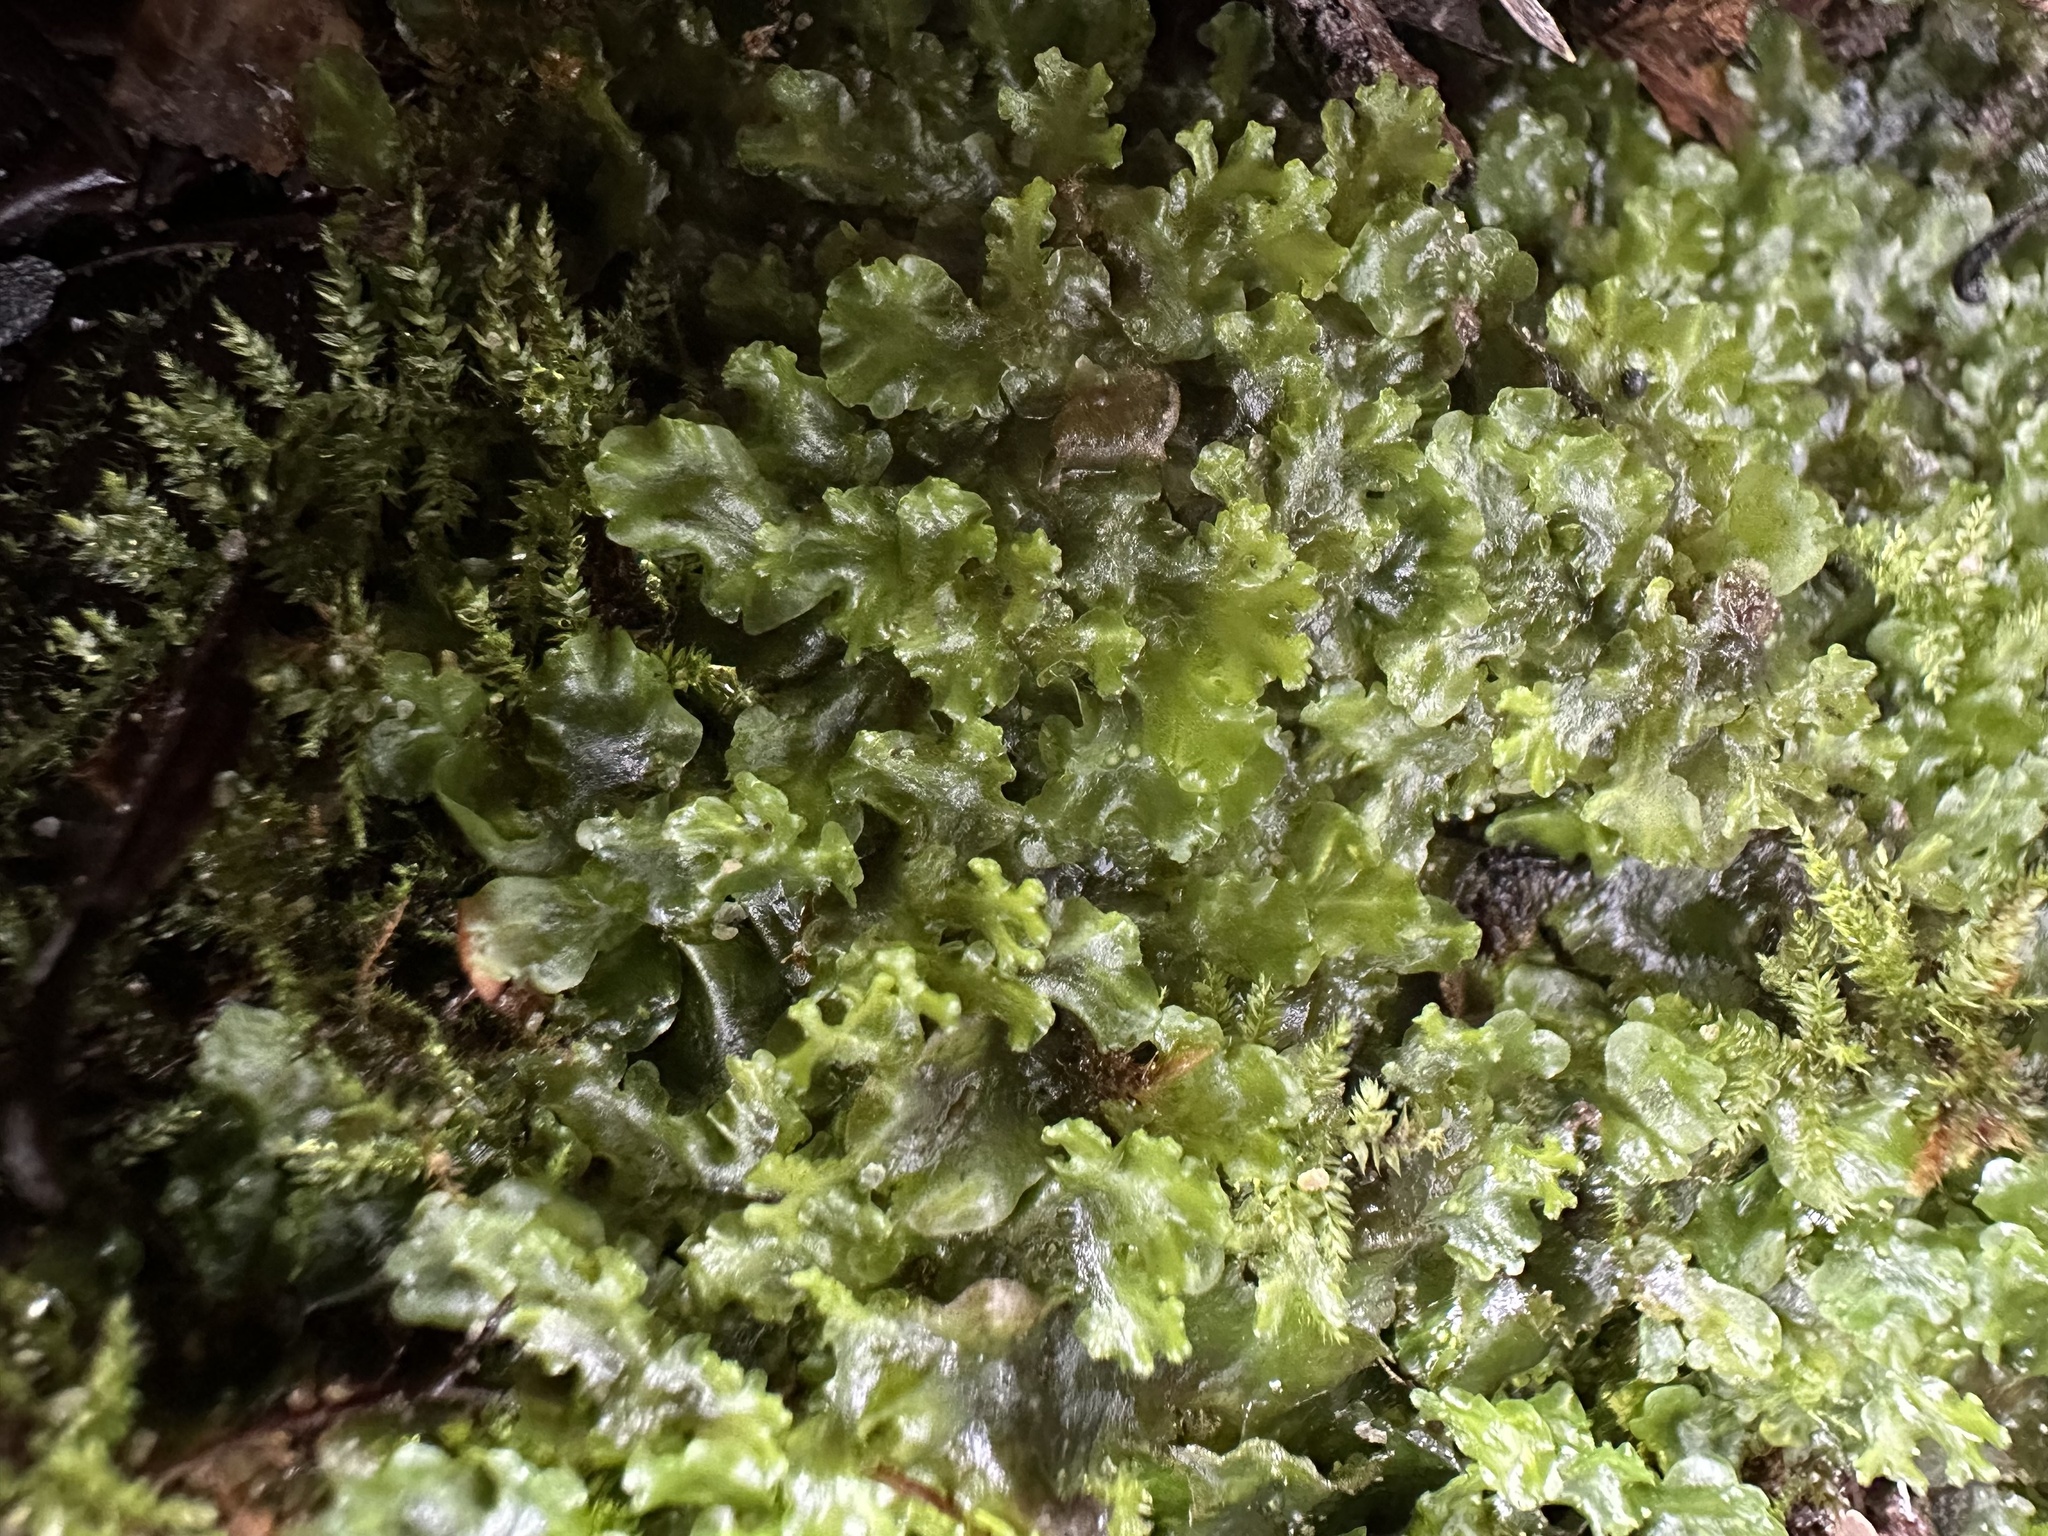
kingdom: Plantae
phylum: Marchantiophyta
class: Jungermanniopsida
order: Pelliales
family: Pelliaceae
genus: Apopellia
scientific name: Apopellia endiviifolia
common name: Endive pellia
